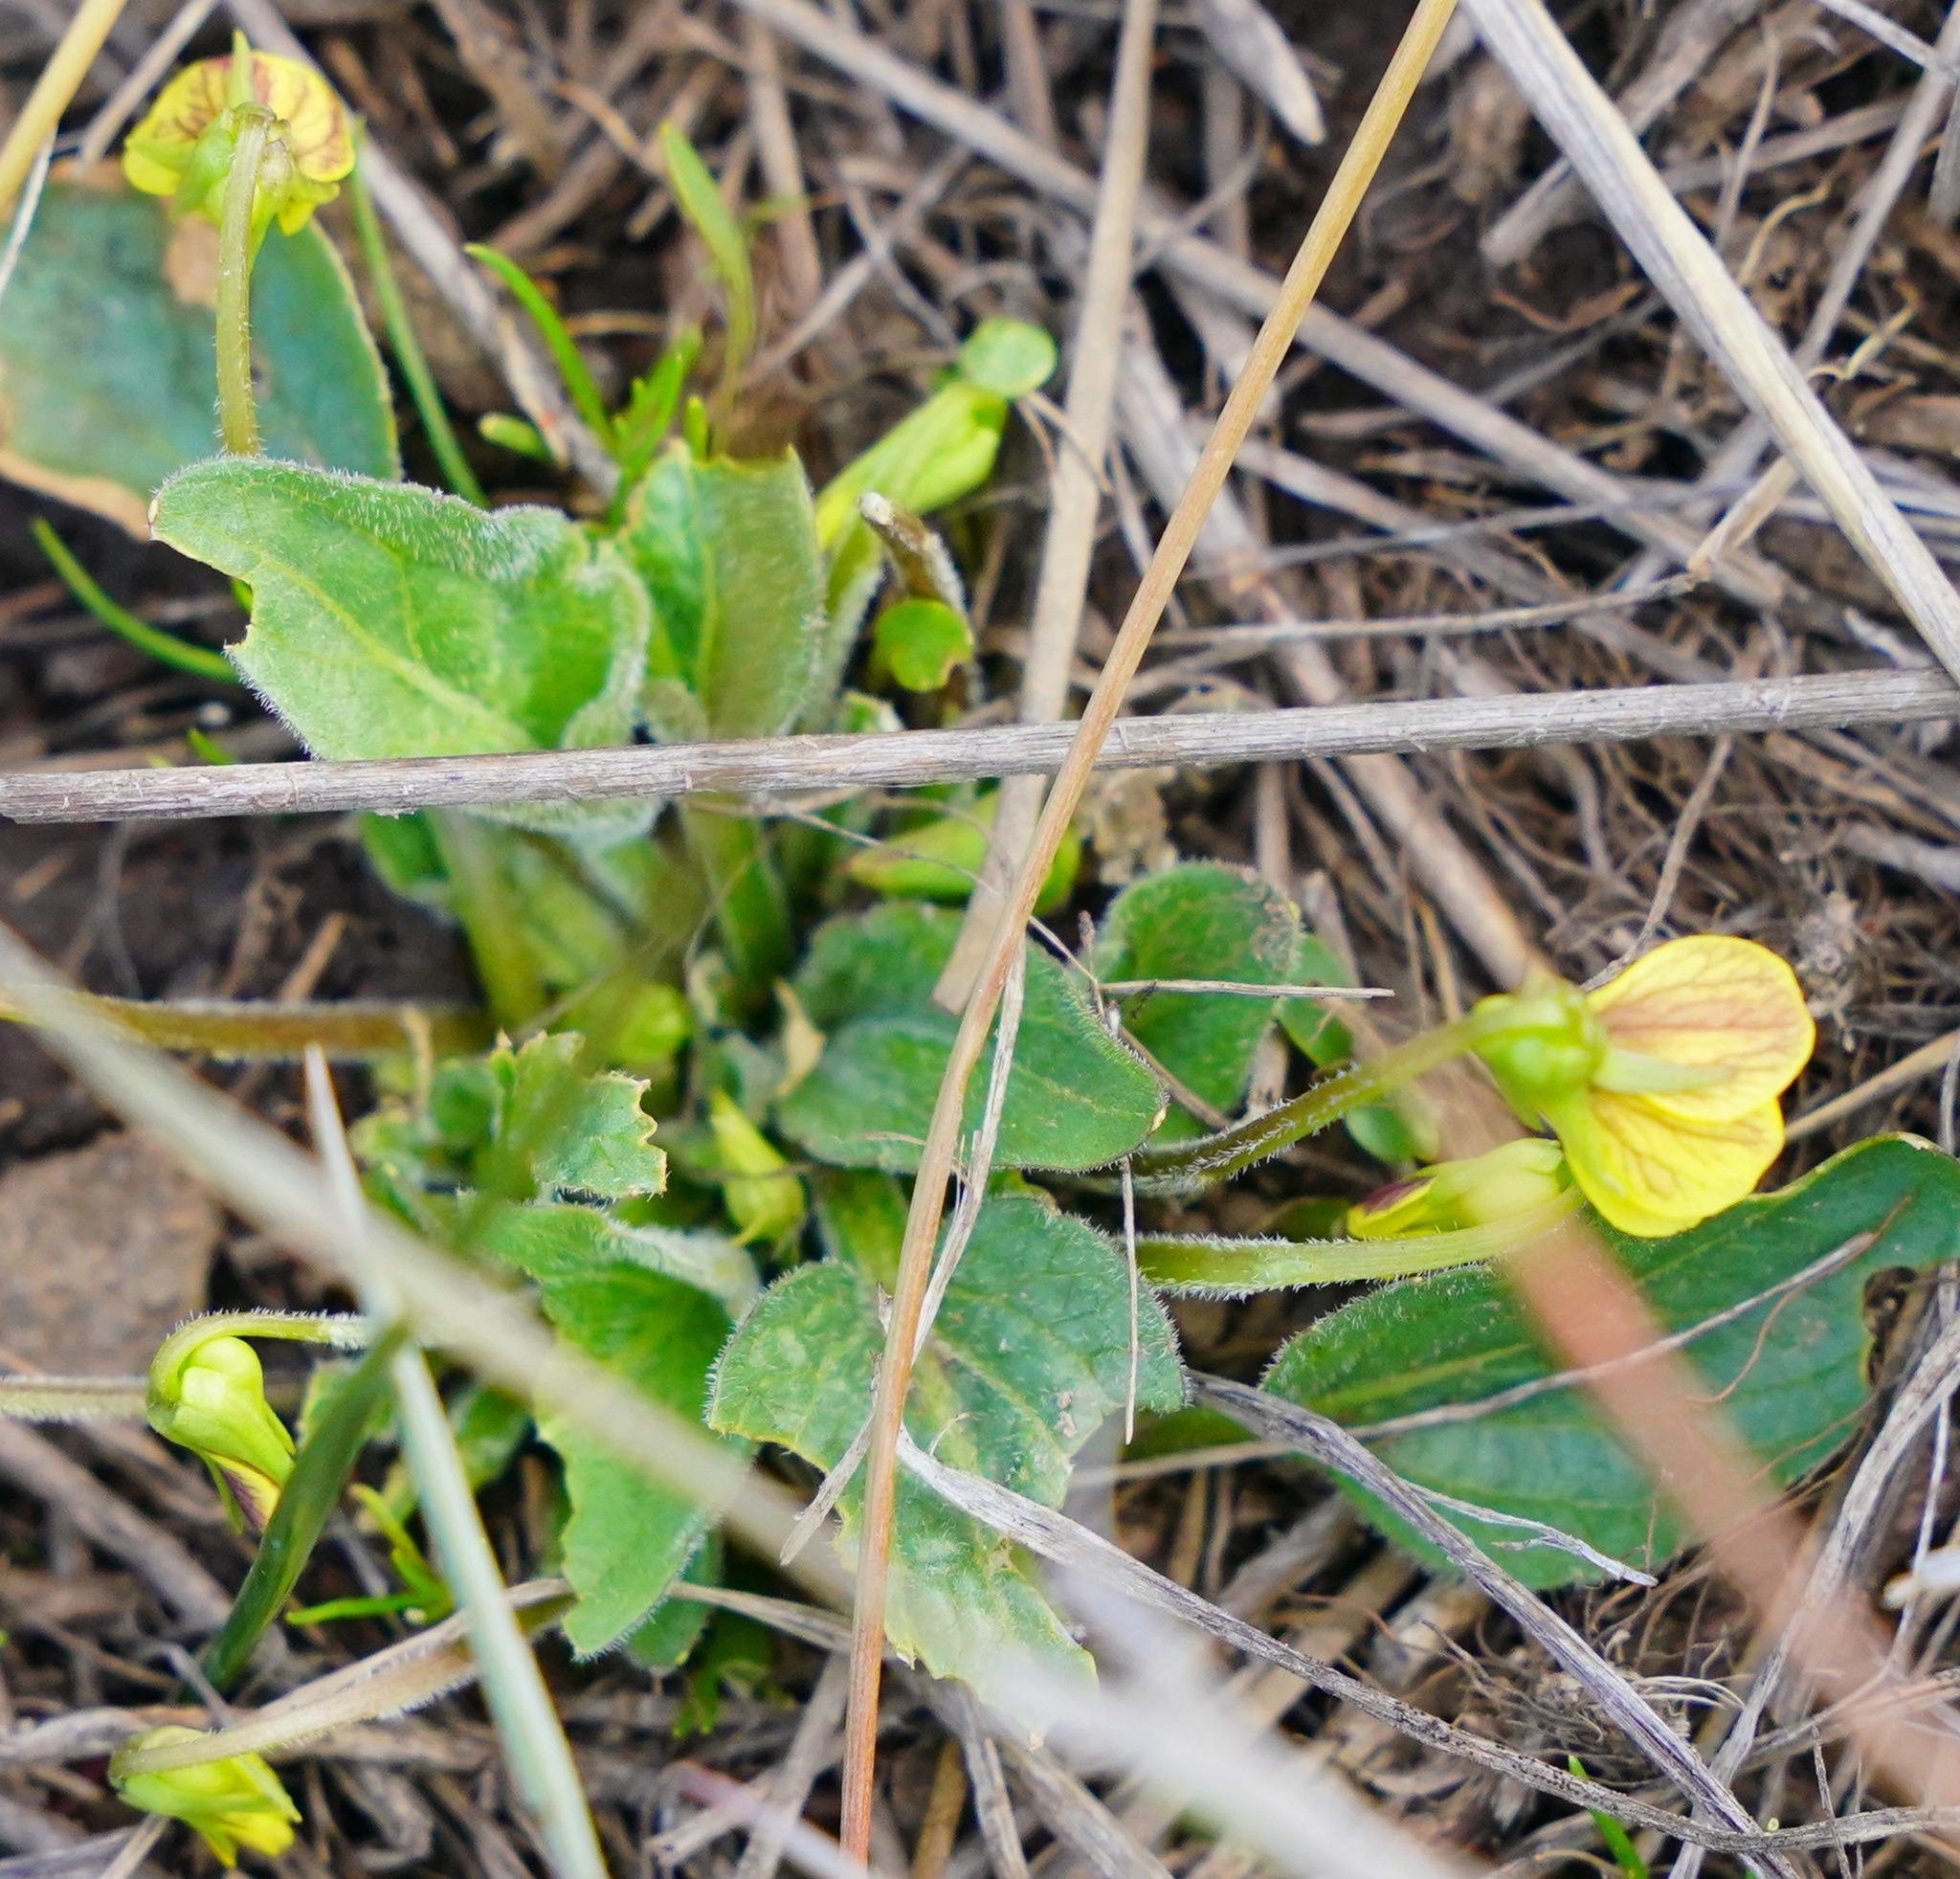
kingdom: Plantae
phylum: Tracheophyta
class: Magnoliopsida
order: Malpighiales
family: Violaceae
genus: Viola
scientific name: Viola praemorsa
